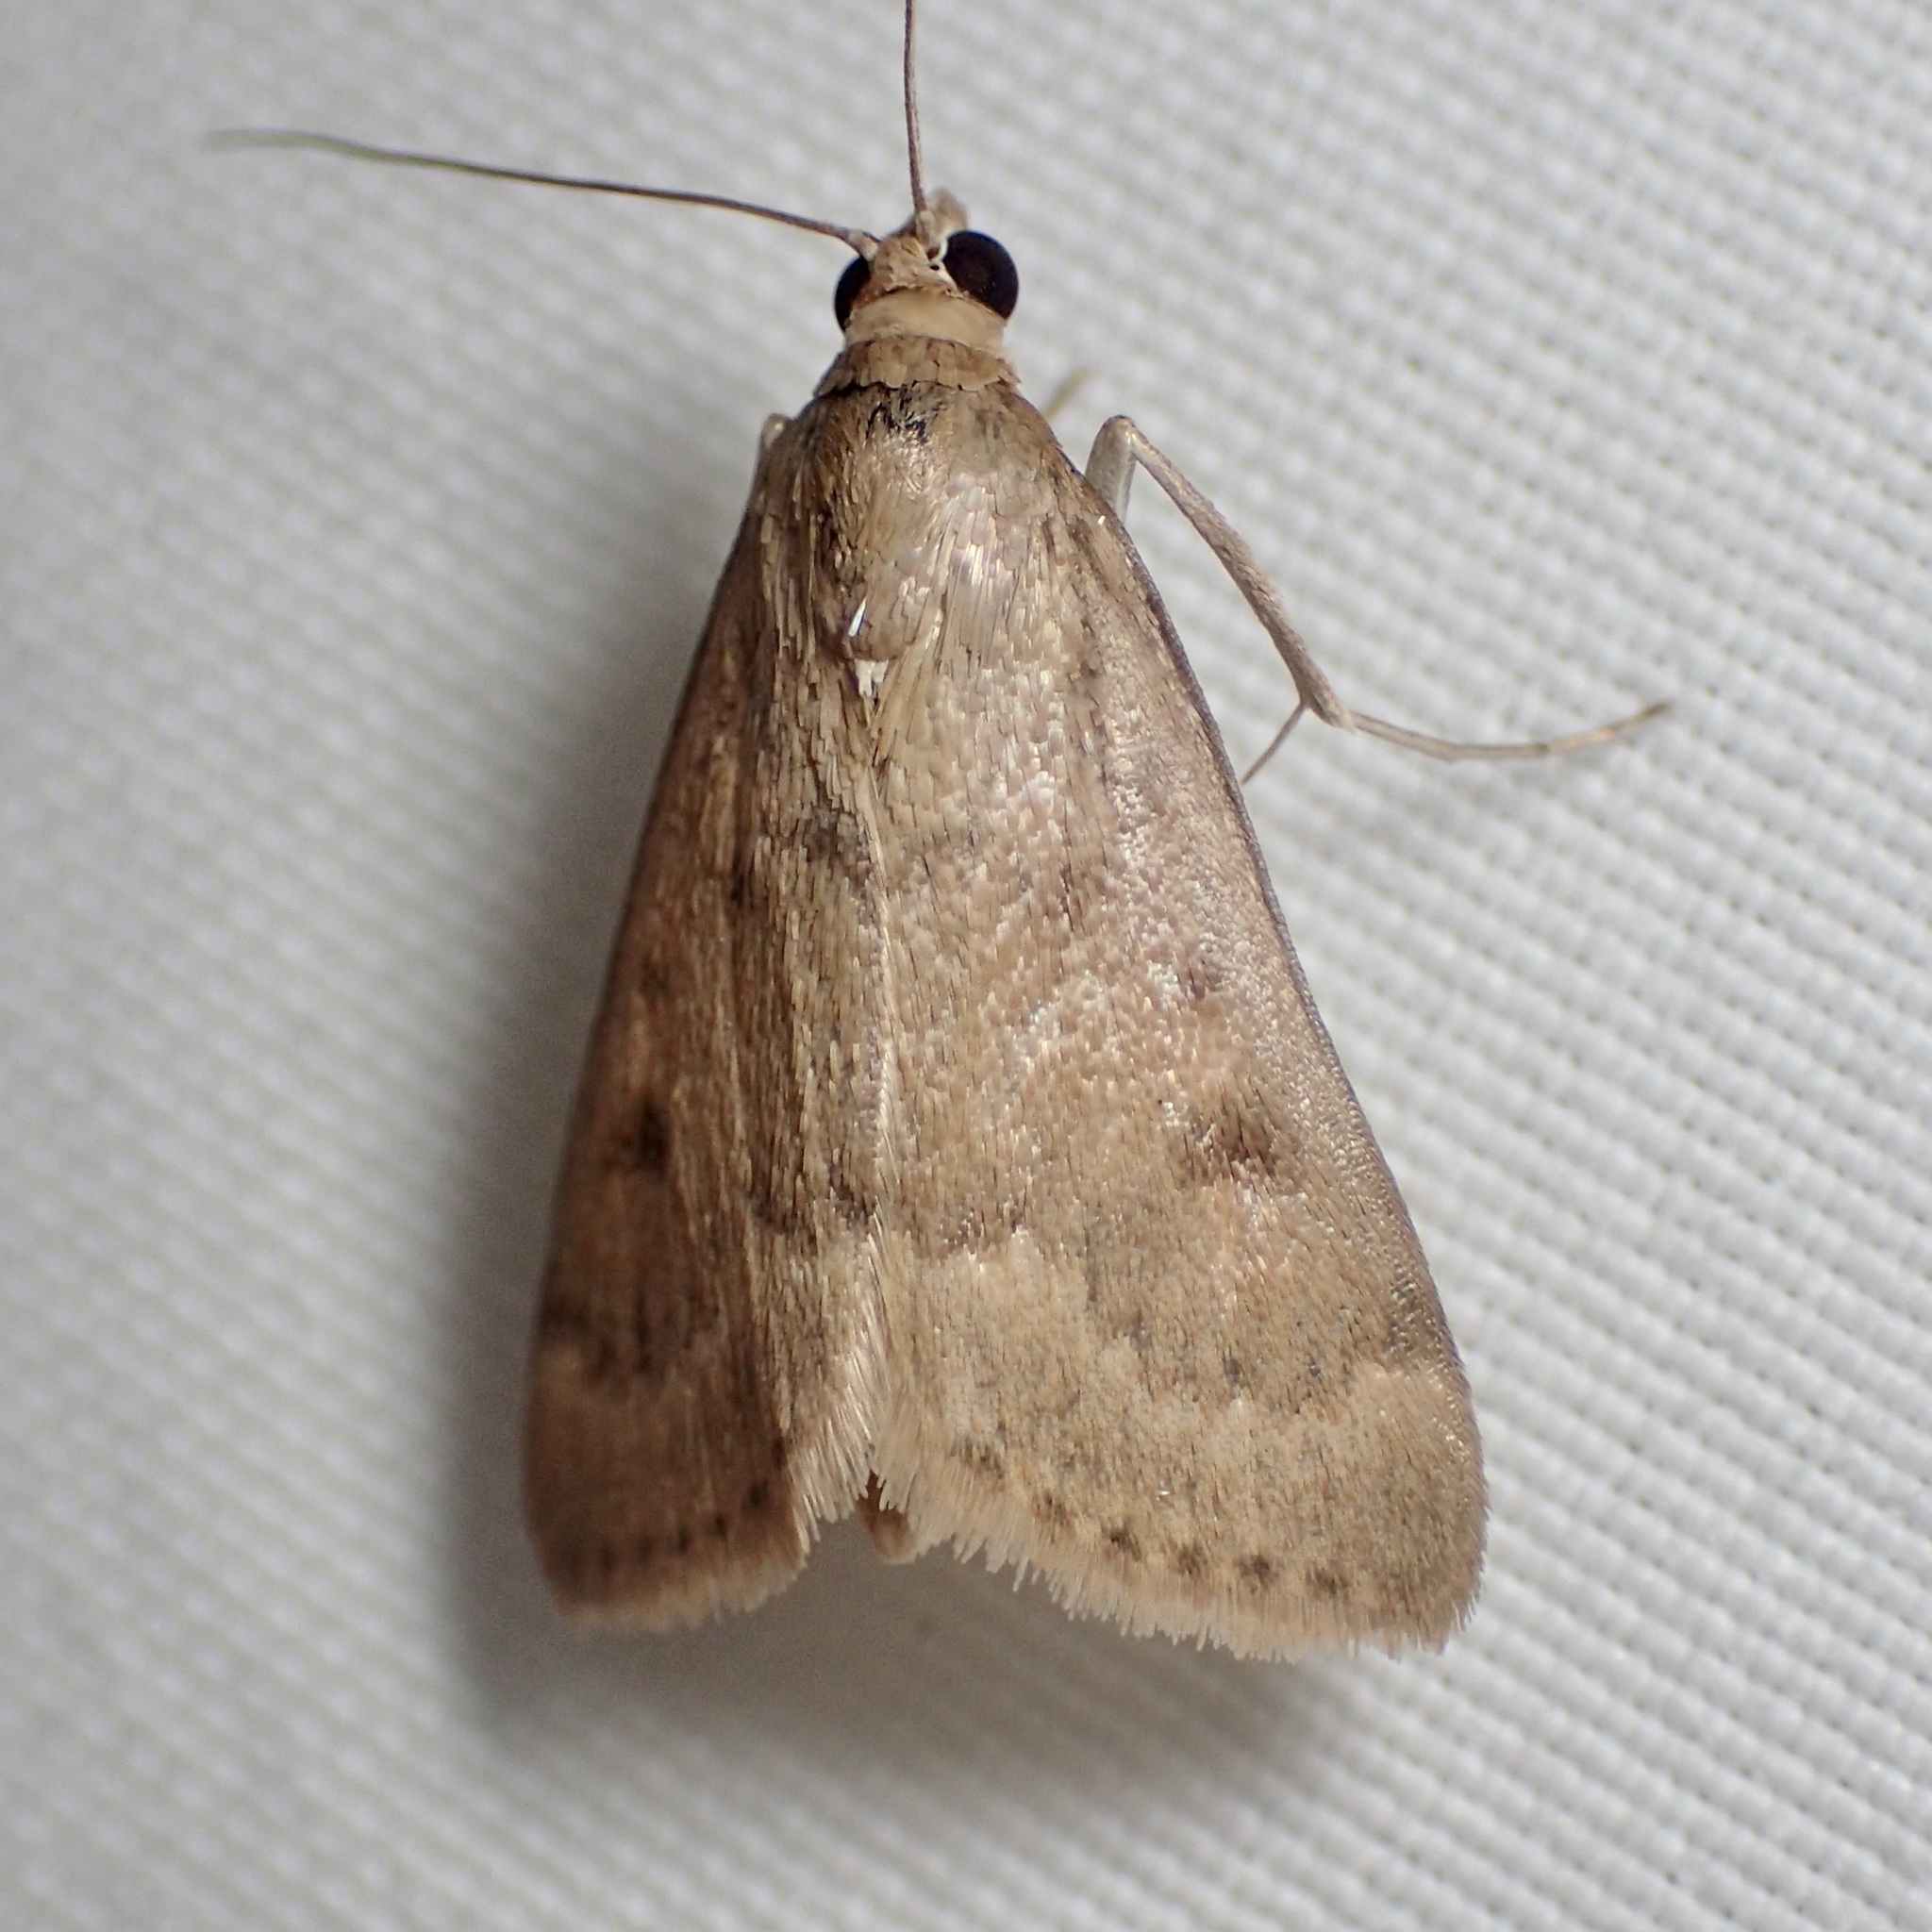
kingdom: Animalia
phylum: Arthropoda
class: Insecta
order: Lepidoptera
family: Crambidae
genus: Achyra
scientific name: Achyra rantalis
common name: Garden webworm
